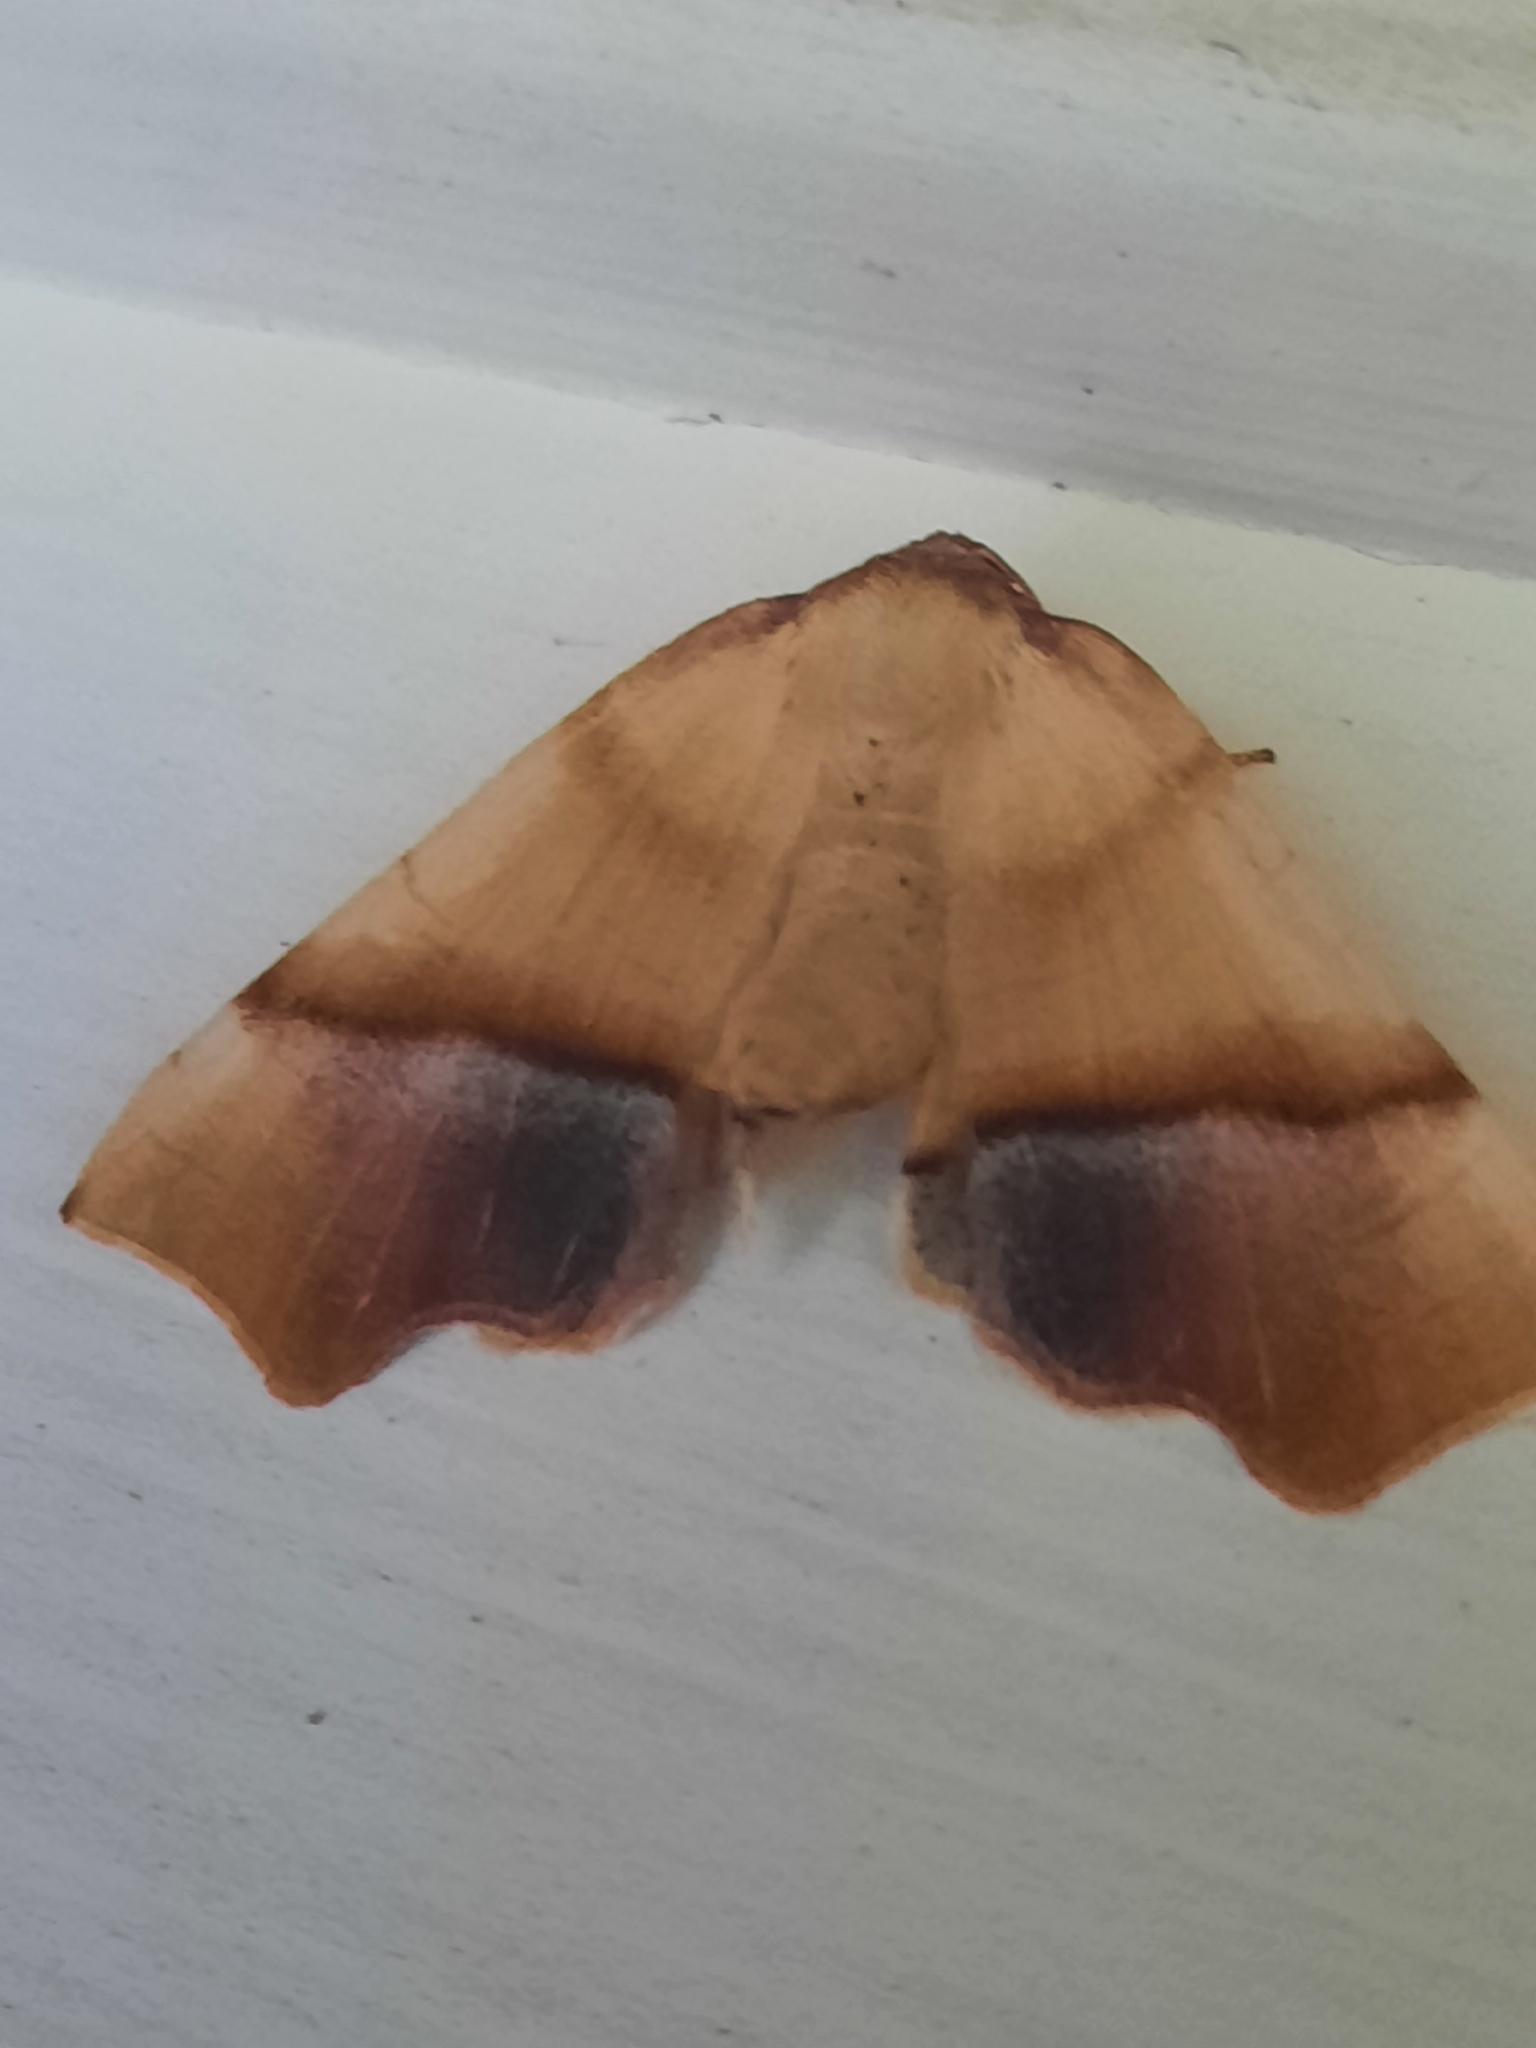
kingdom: Animalia
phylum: Arthropoda
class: Insecta
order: Lepidoptera
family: Geometridae
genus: Plagodis
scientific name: Plagodis phlogosaria
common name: Straight-lined plagodis
